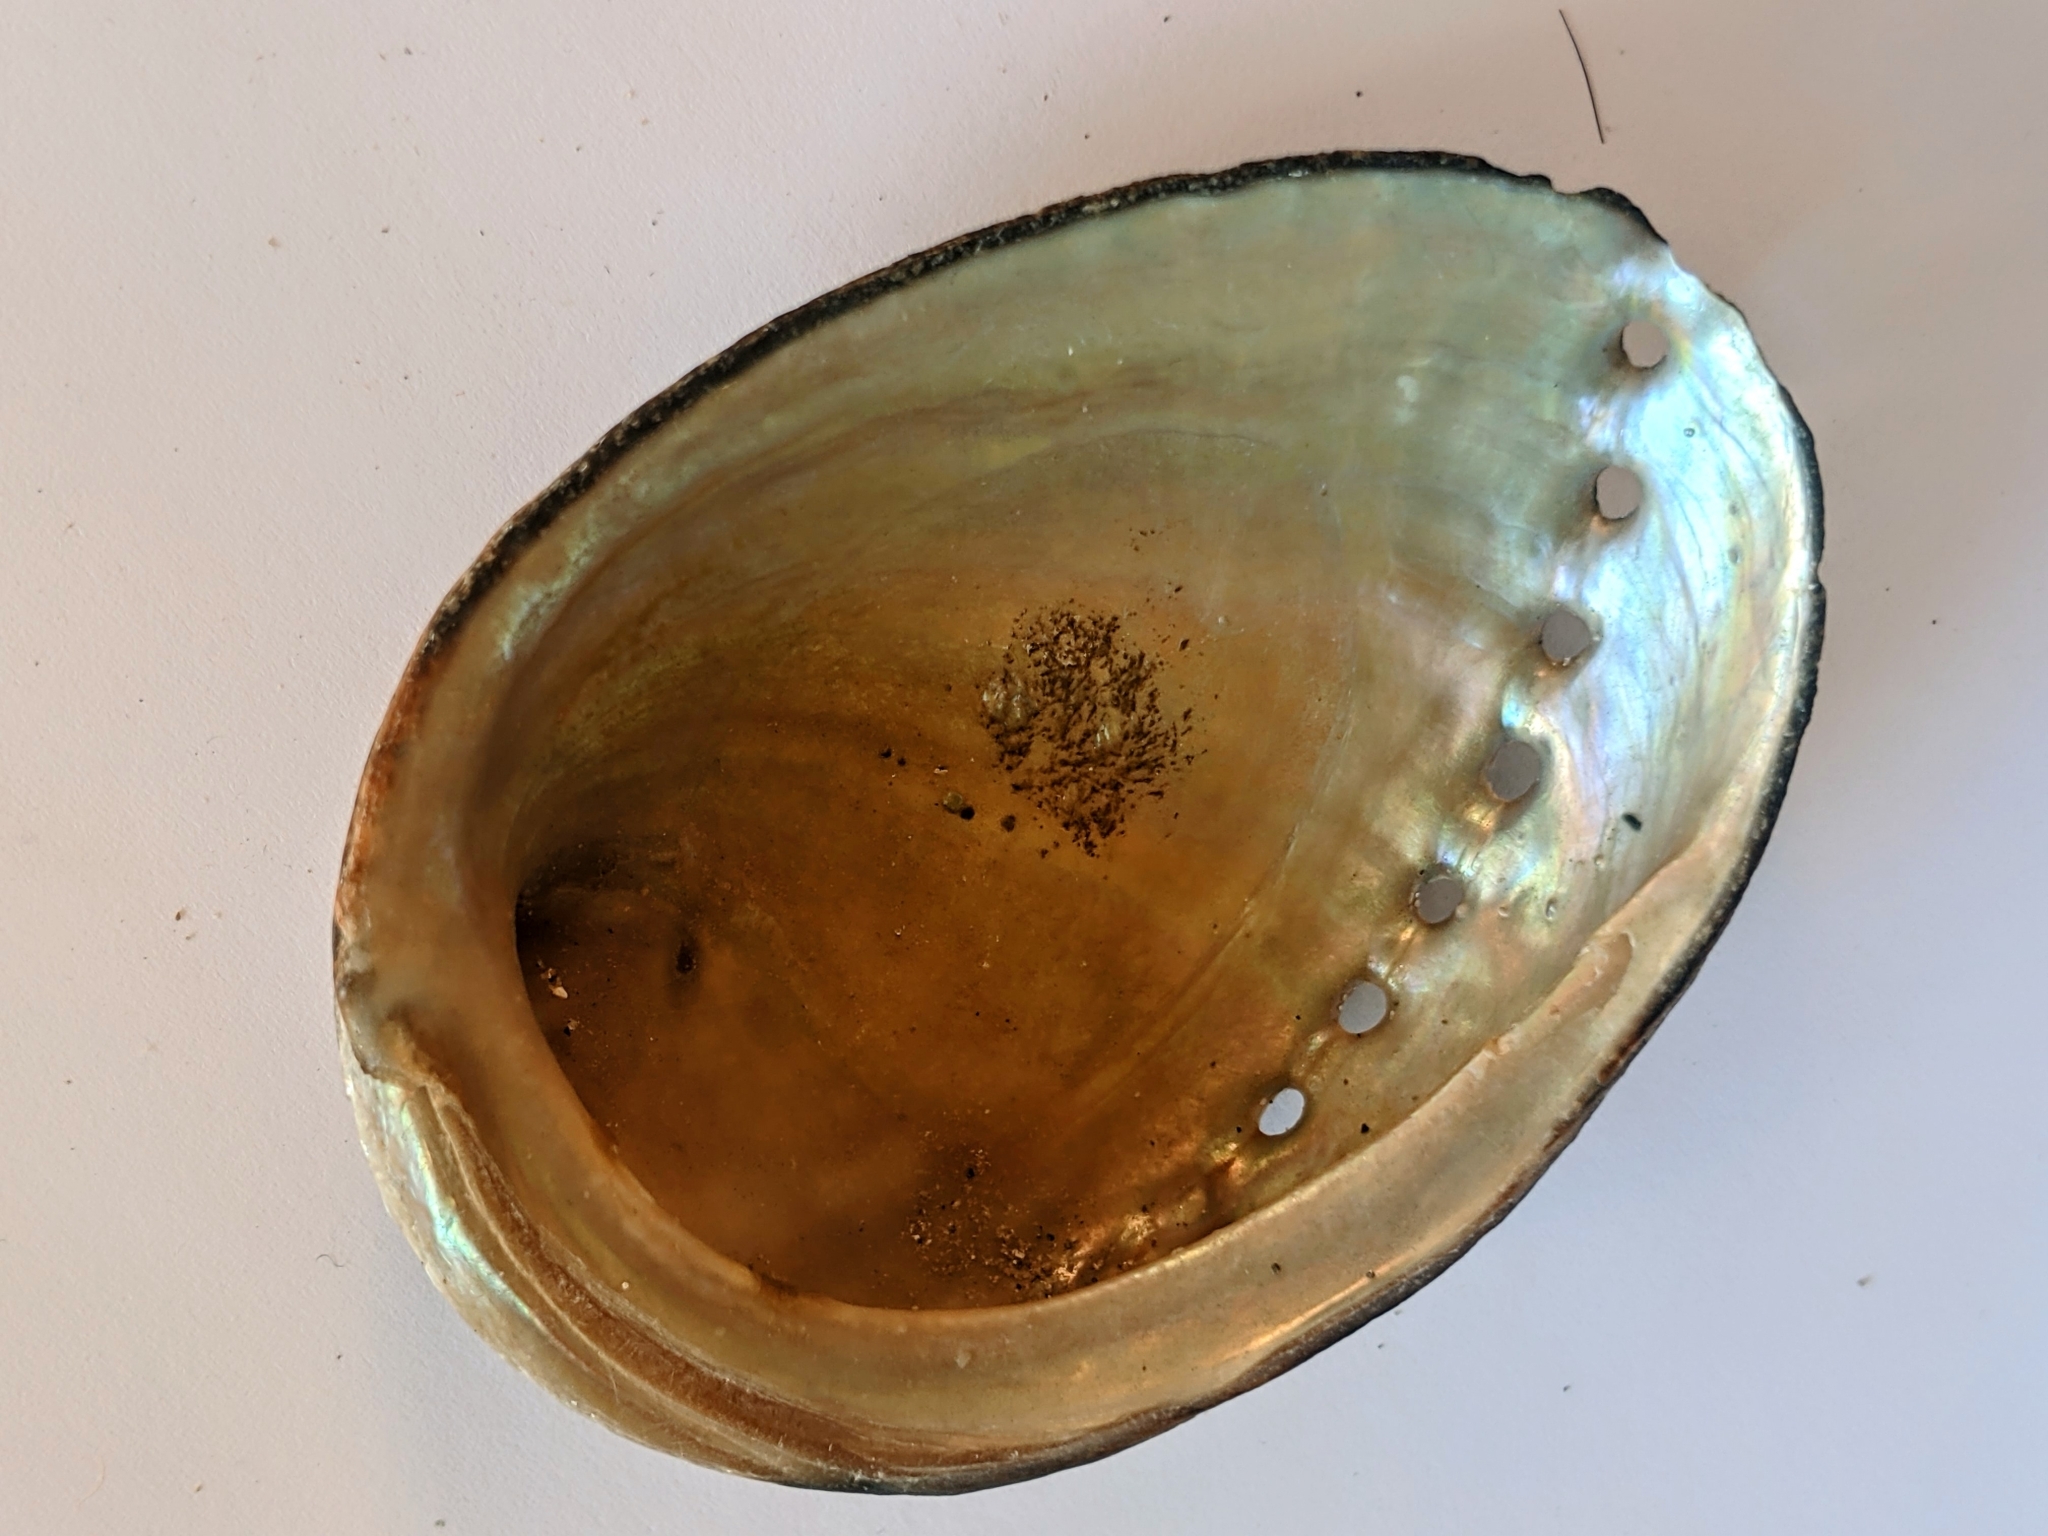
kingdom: Animalia
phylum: Mollusca
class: Gastropoda
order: Lepetellida
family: Haliotidae
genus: Haliotis
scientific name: Haliotis cracherodii
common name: Black abalone
